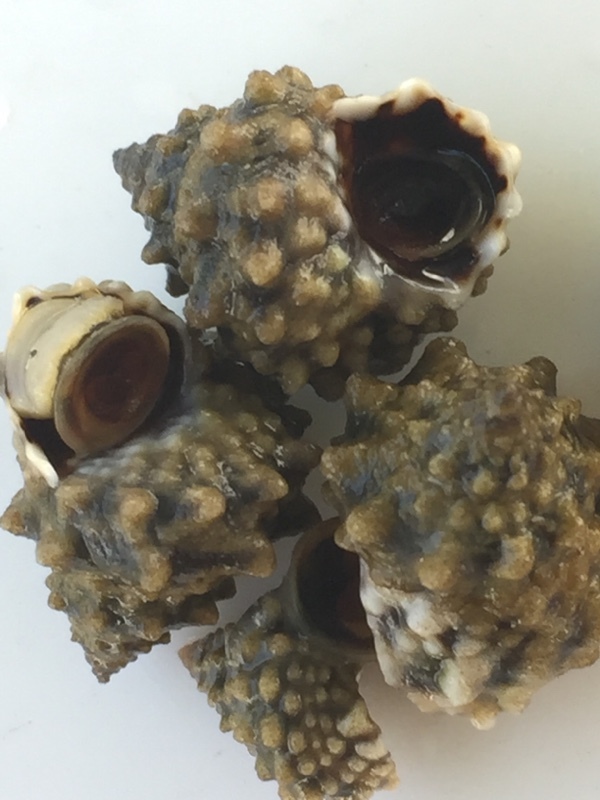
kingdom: Animalia
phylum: Mollusca
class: Gastropoda
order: Littorinimorpha
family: Littorinidae
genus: Echinolittorina
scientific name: Echinolittorina tuberculata
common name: Common periwinkle
